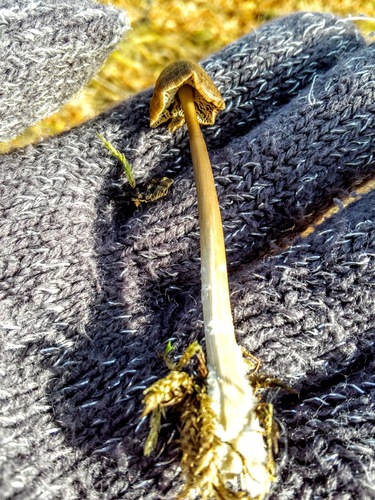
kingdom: Fungi
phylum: Basidiomycota
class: Agaricomycetes
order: Agaricales
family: Omphalotaceae
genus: Rhodocollybia
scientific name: Rhodocollybia butyracea
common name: Butter cap
